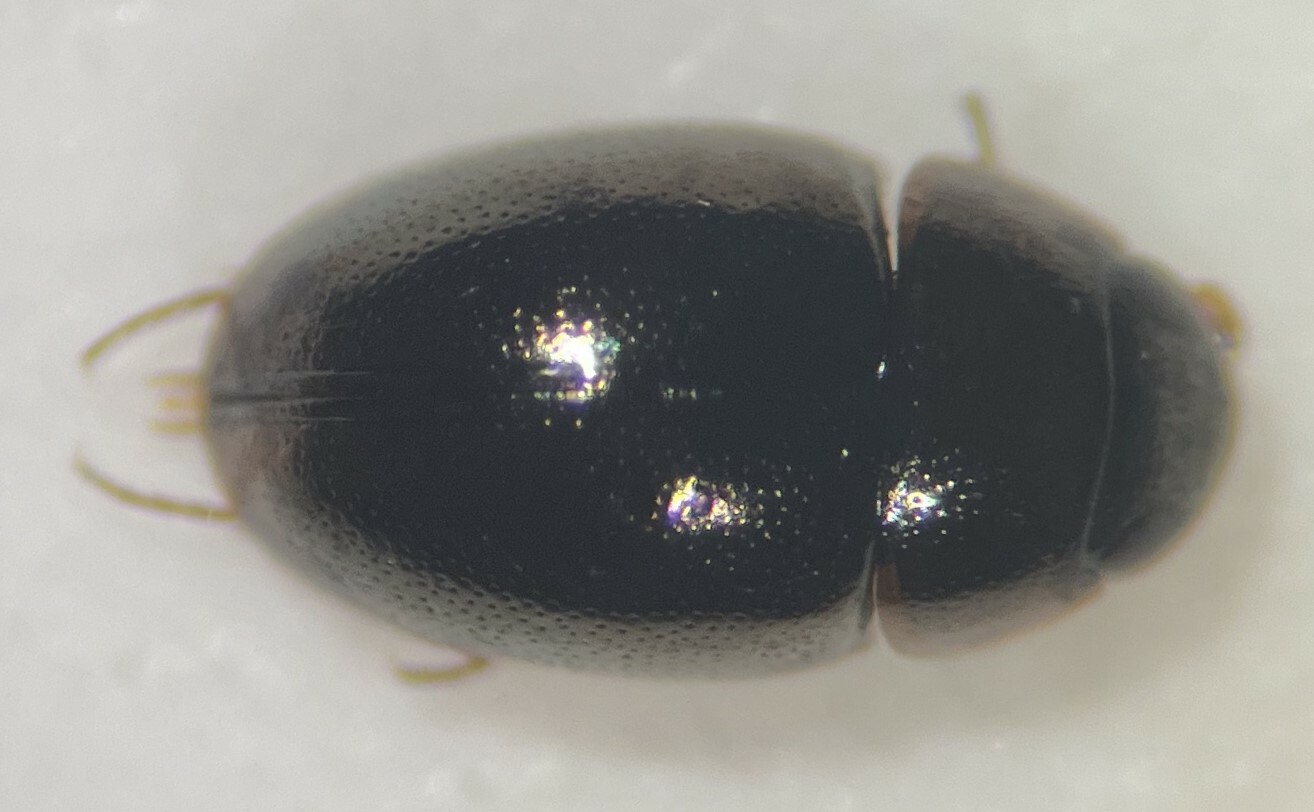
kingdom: Animalia
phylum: Arthropoda
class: Insecta
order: Coleoptera
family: Hydrophilidae
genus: Paracymus
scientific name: Paracymus confusus
